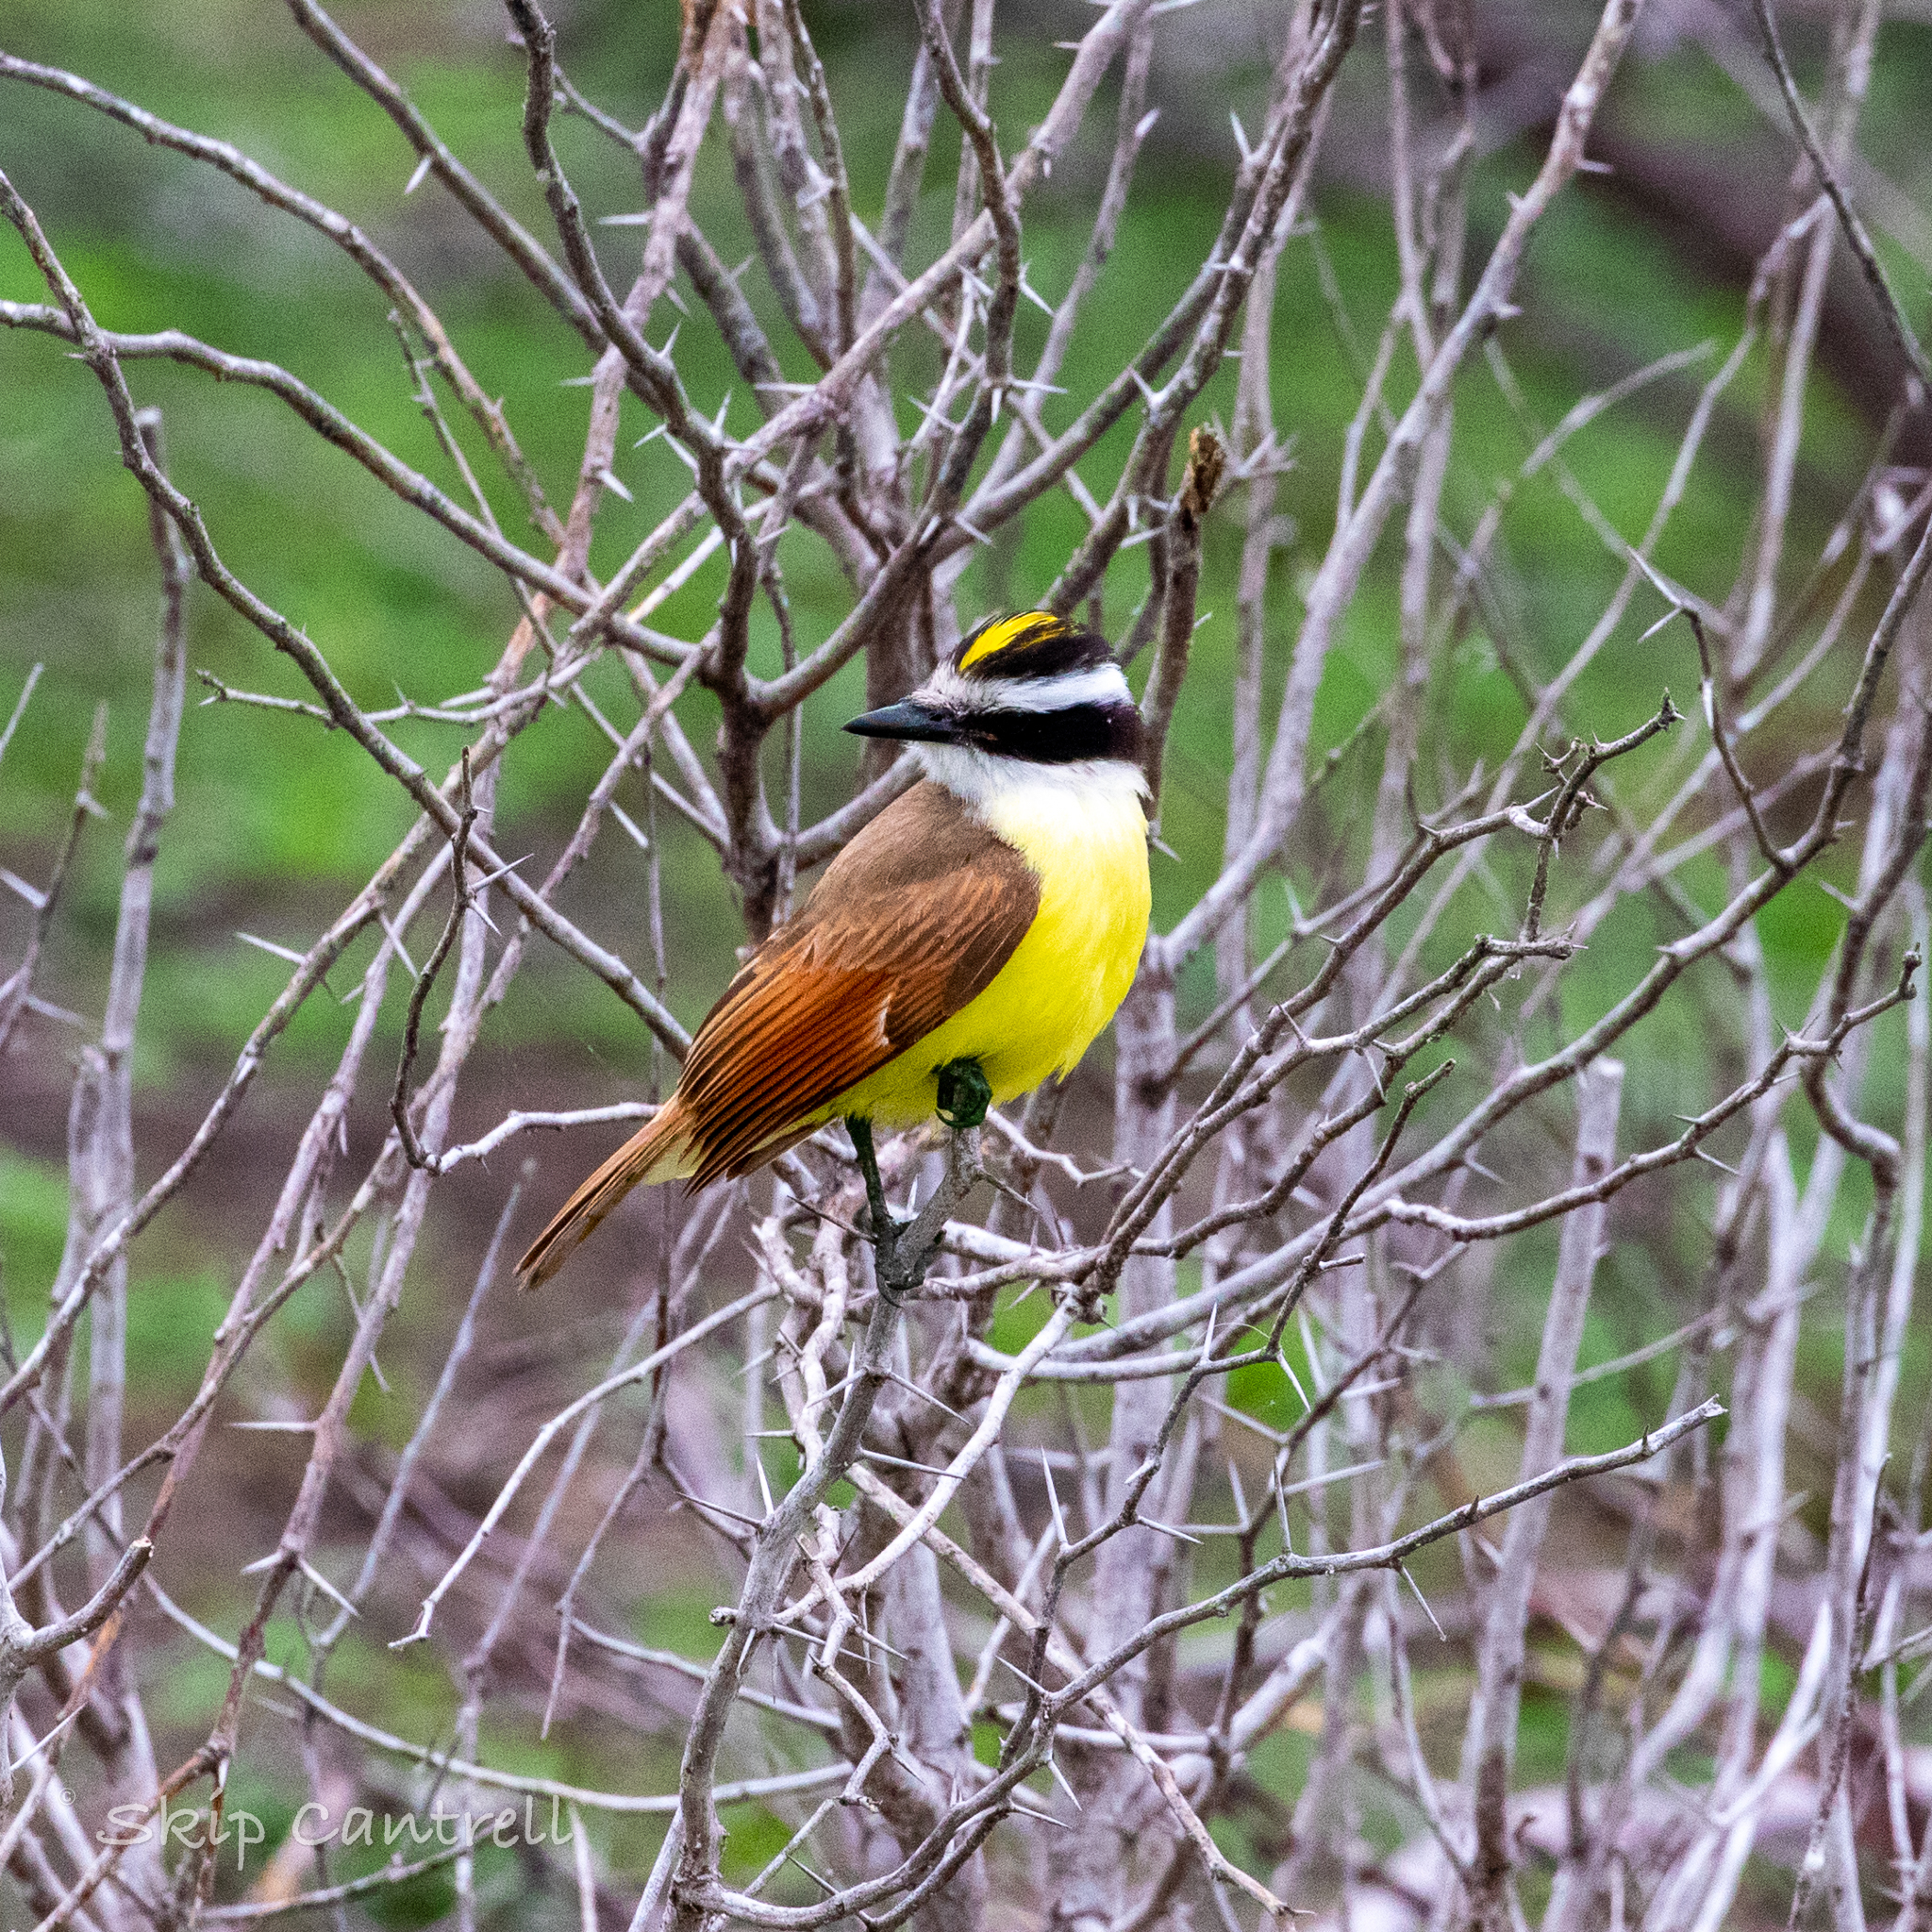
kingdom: Animalia
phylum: Chordata
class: Aves
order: Passeriformes
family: Tyrannidae
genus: Pitangus
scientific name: Pitangus sulphuratus
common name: Great kiskadee
